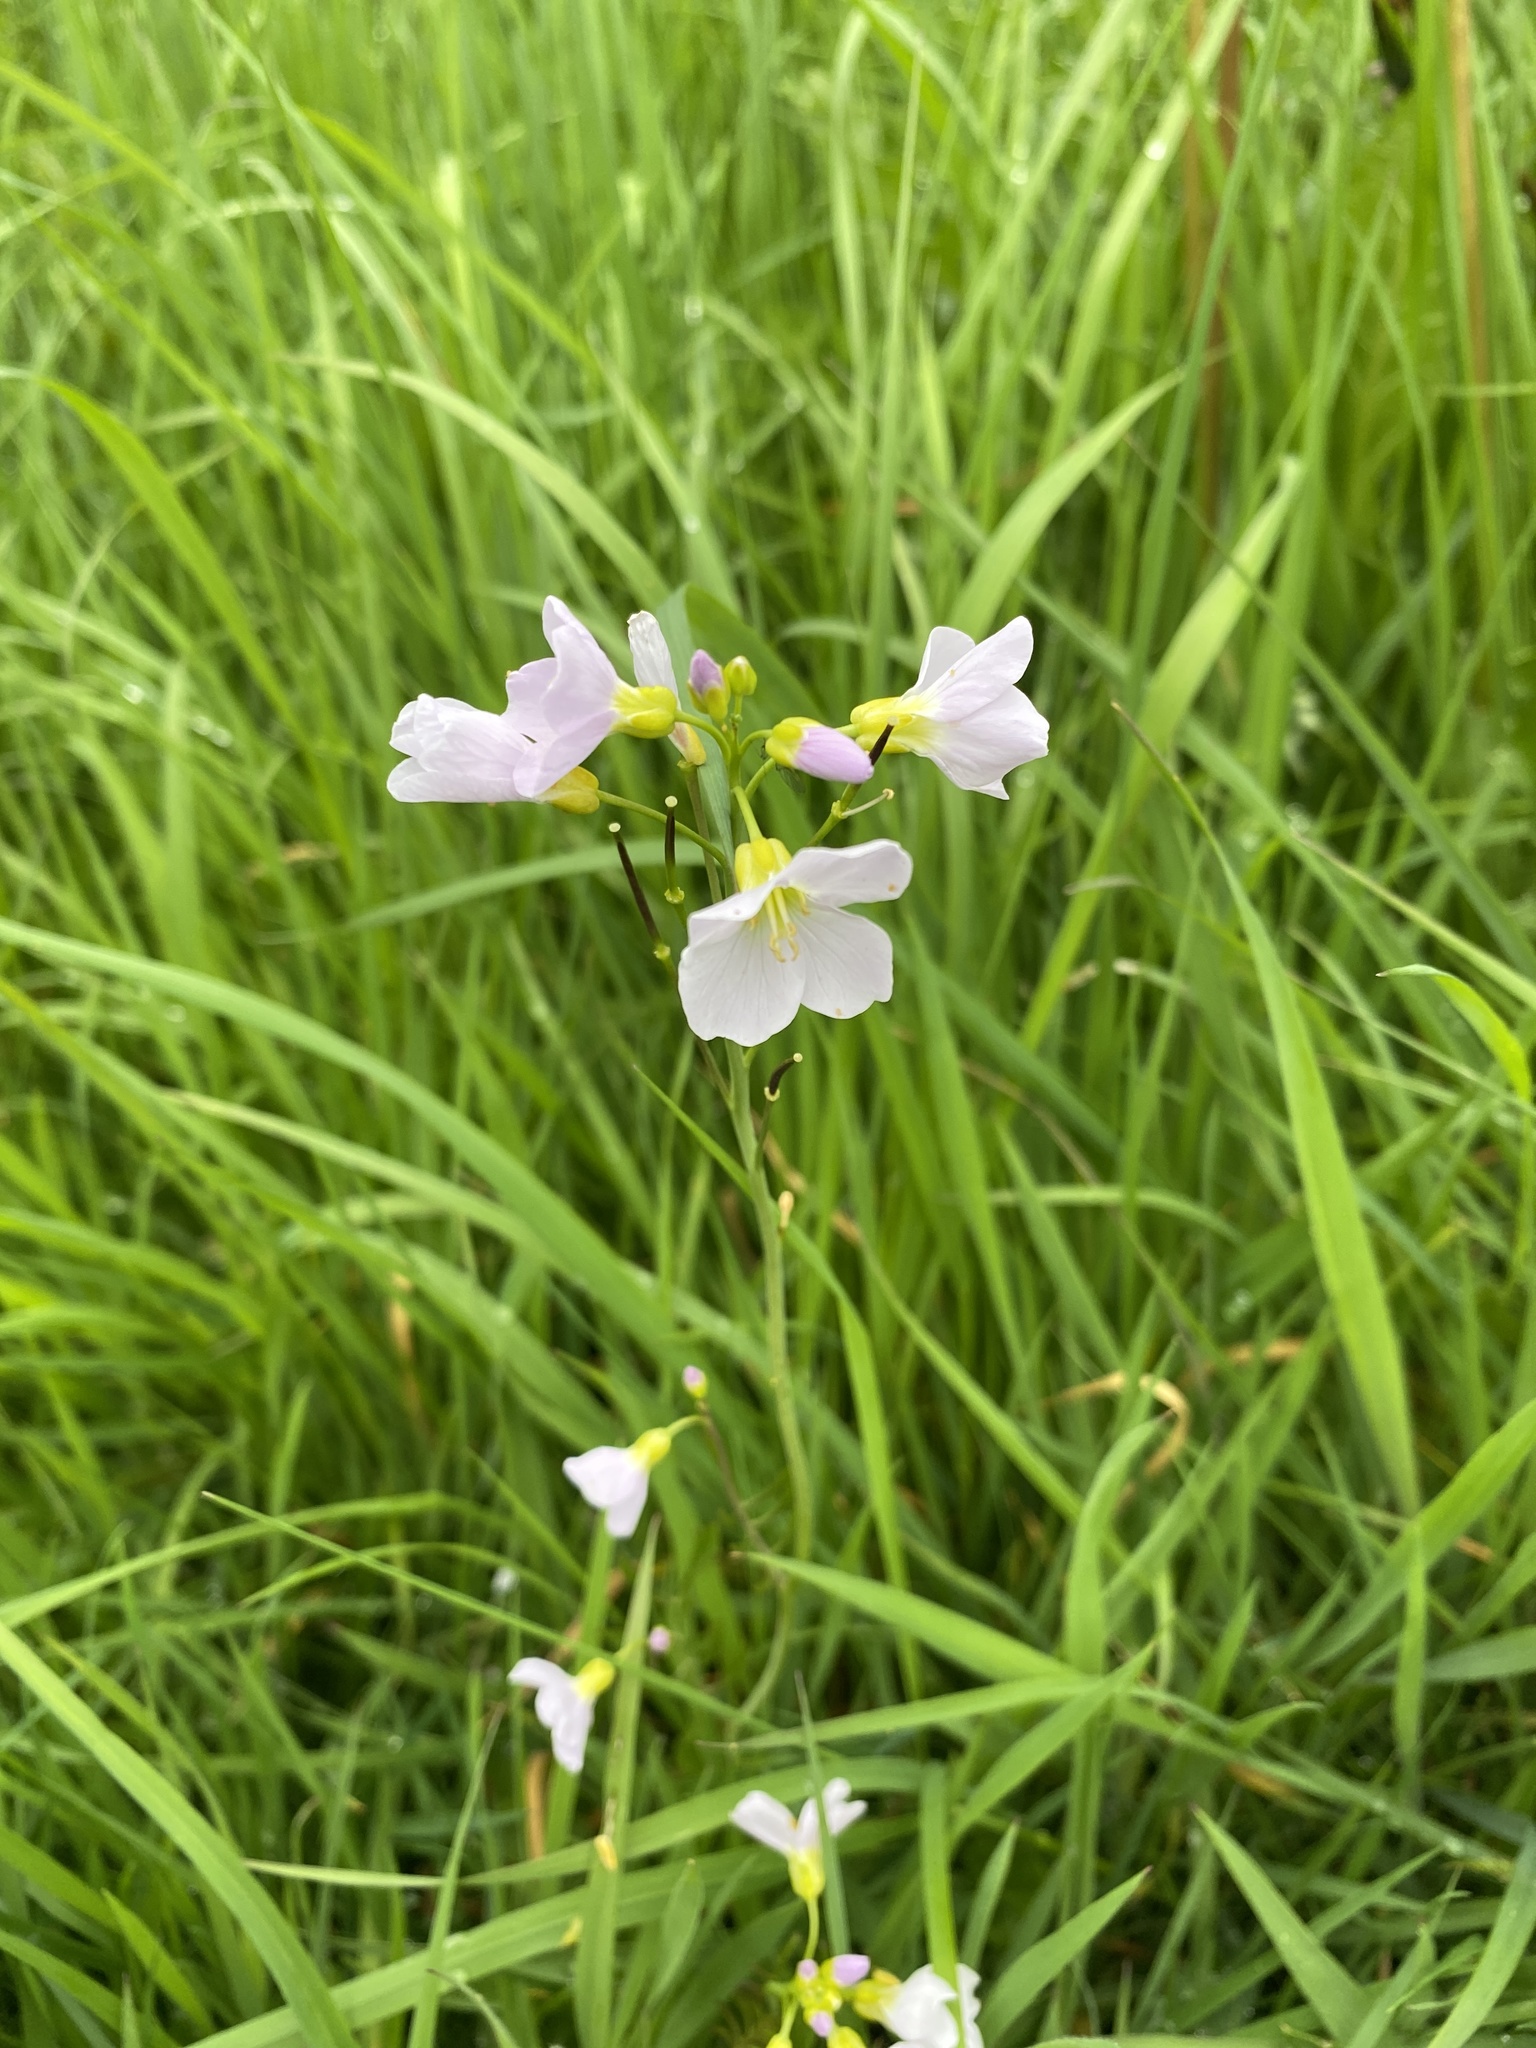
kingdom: Plantae
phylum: Tracheophyta
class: Magnoliopsida
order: Brassicales
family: Brassicaceae
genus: Cardamine
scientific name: Cardamine pratensis
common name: Cuckoo flower
